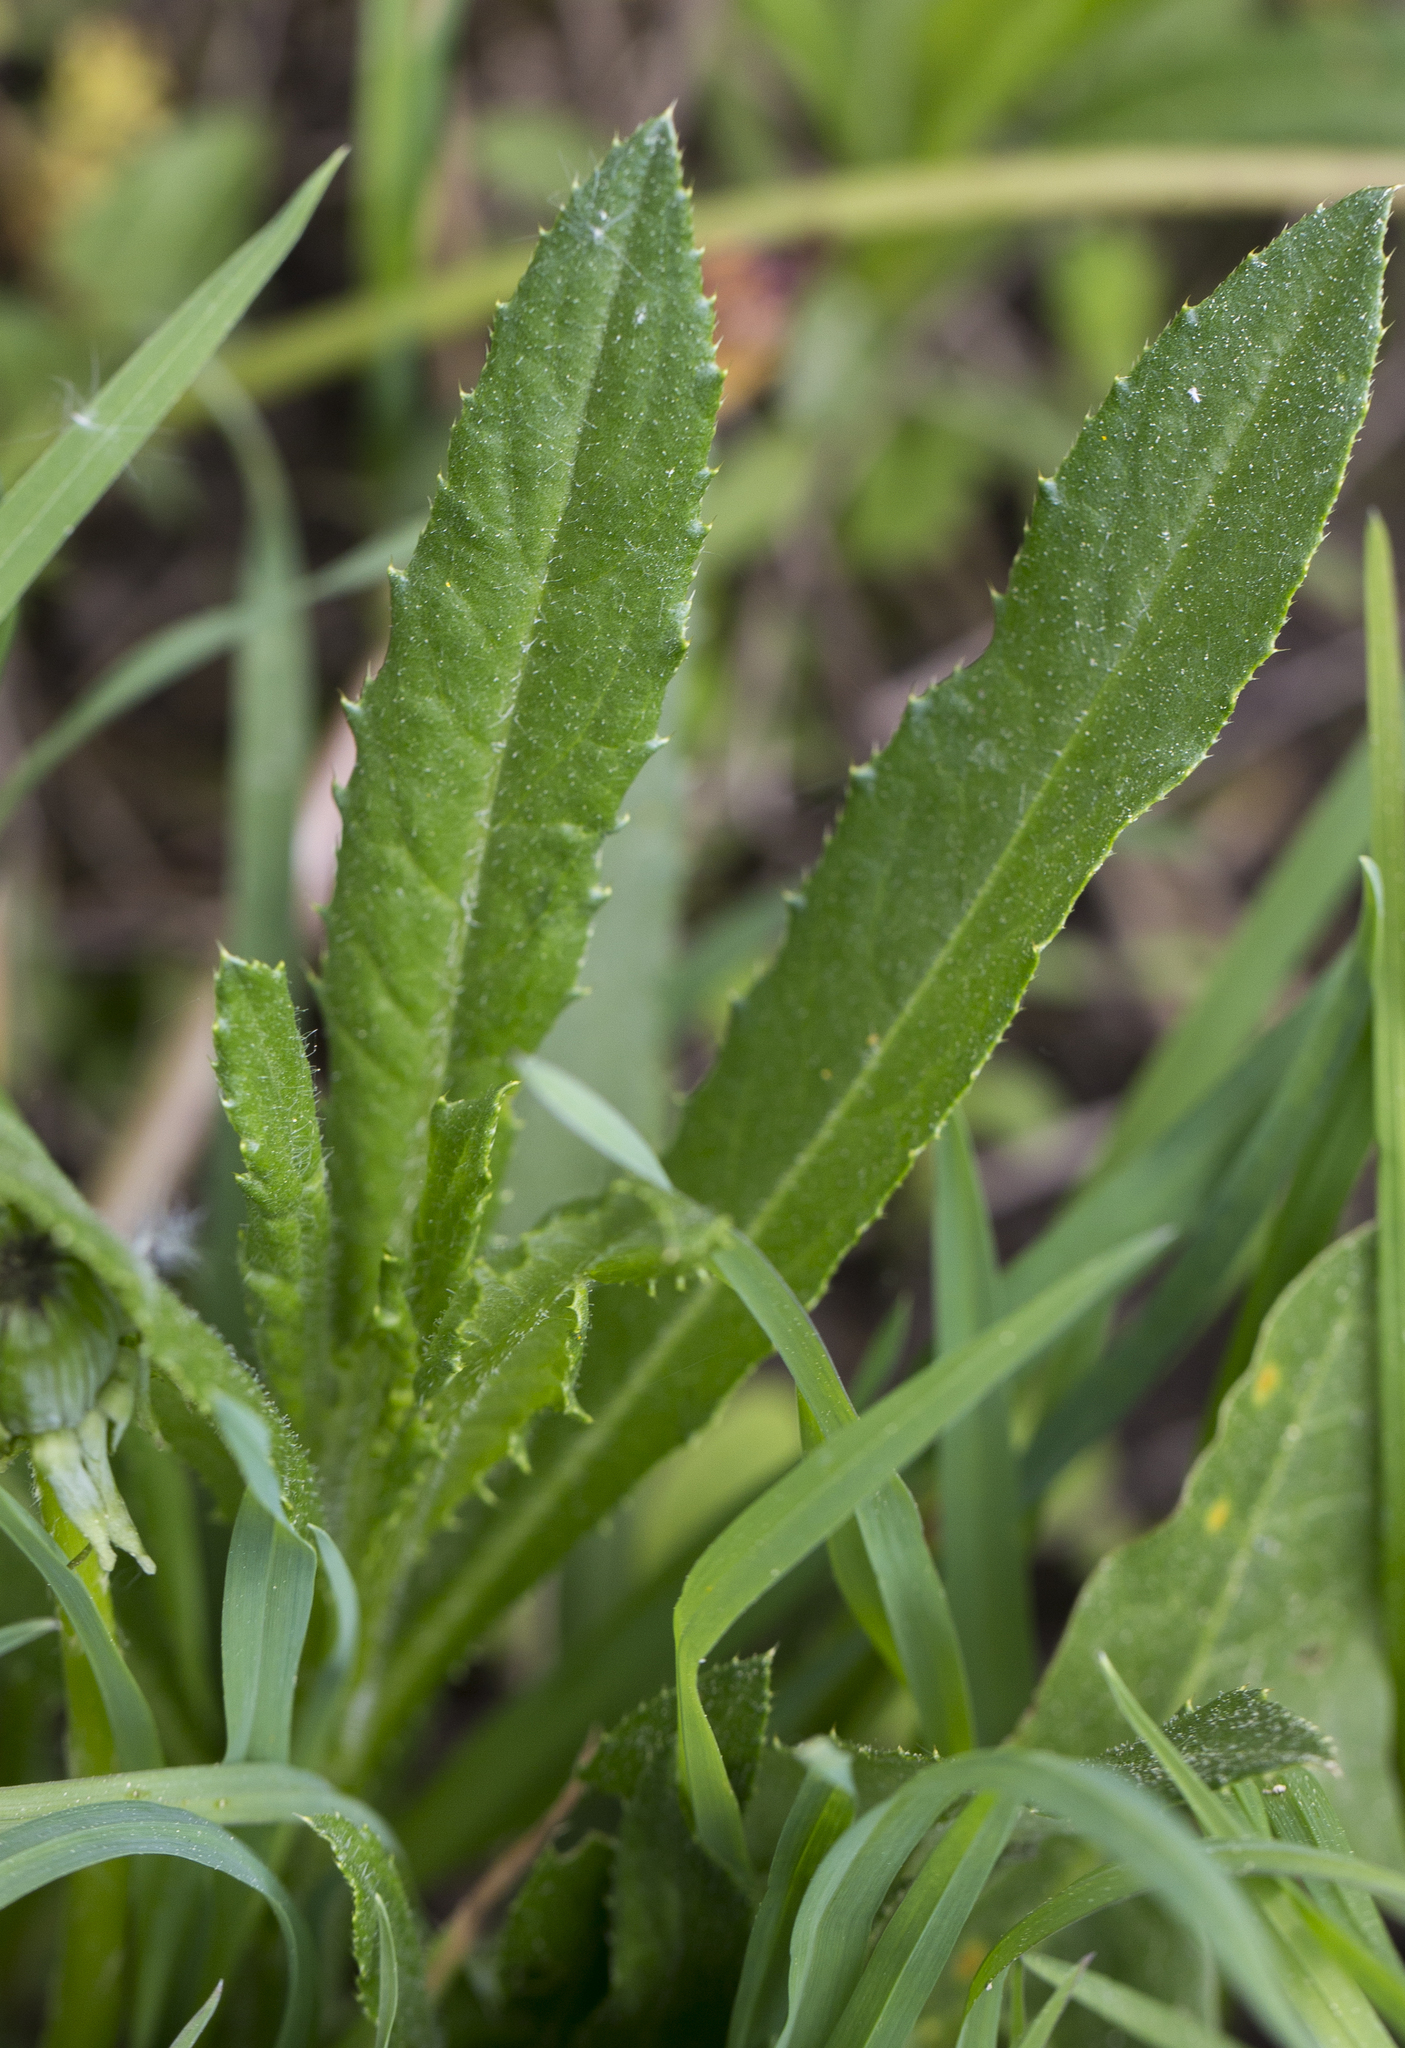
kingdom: Plantae
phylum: Tracheophyta
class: Magnoliopsida
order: Asterales
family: Asteraceae
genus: Cirsium
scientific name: Cirsium arvense
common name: Creeping thistle
